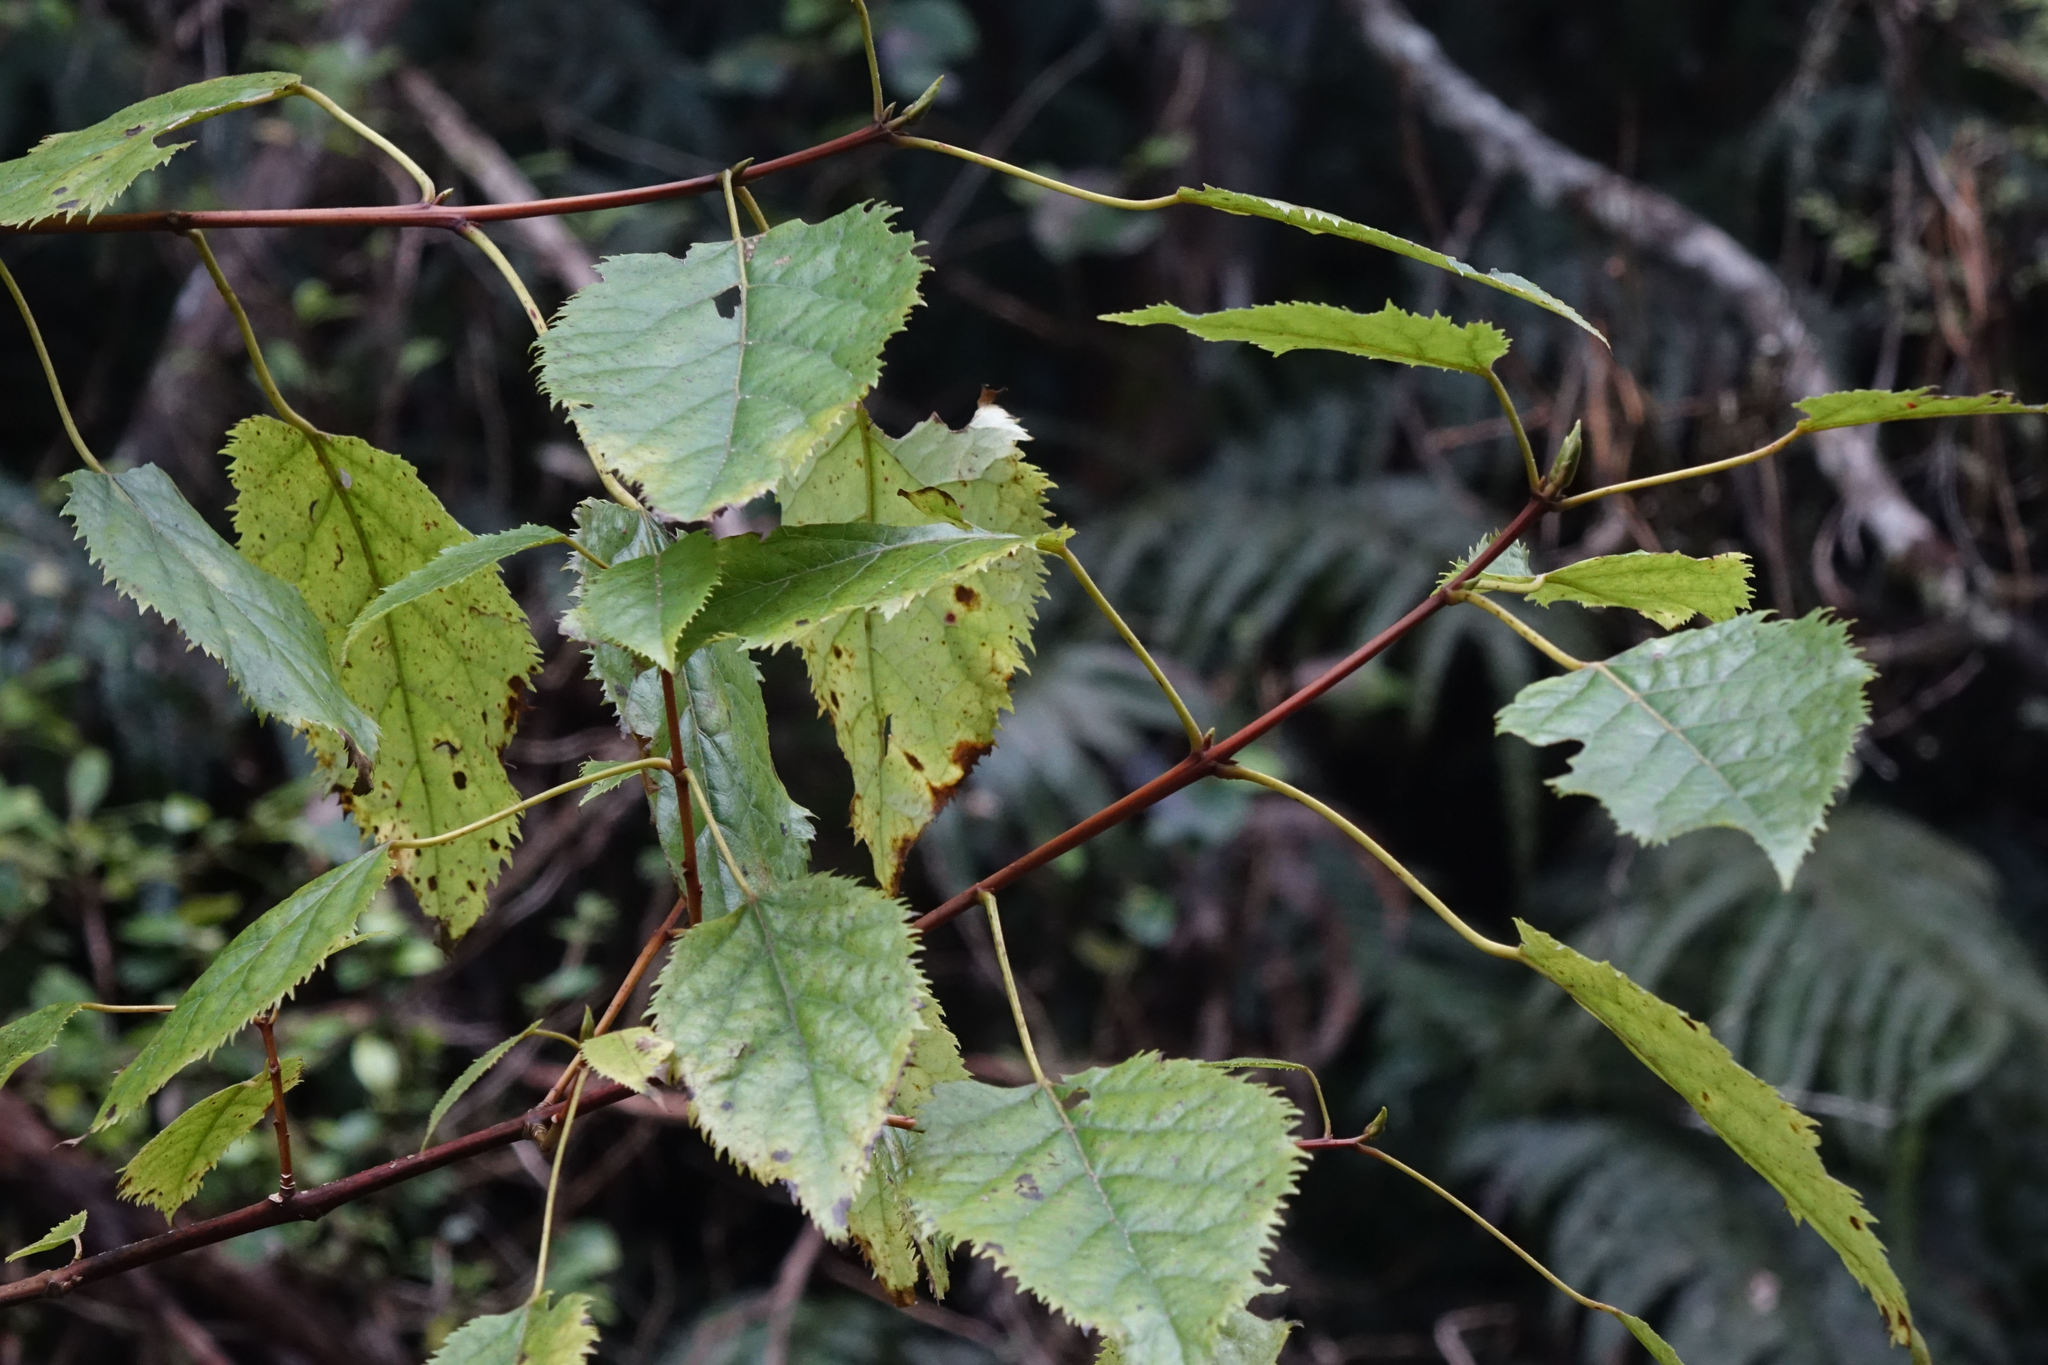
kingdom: Plantae
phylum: Tracheophyta
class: Magnoliopsida
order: Oxalidales
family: Elaeocarpaceae
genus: Aristotelia
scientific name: Aristotelia serrata
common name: New zealand wineberry
